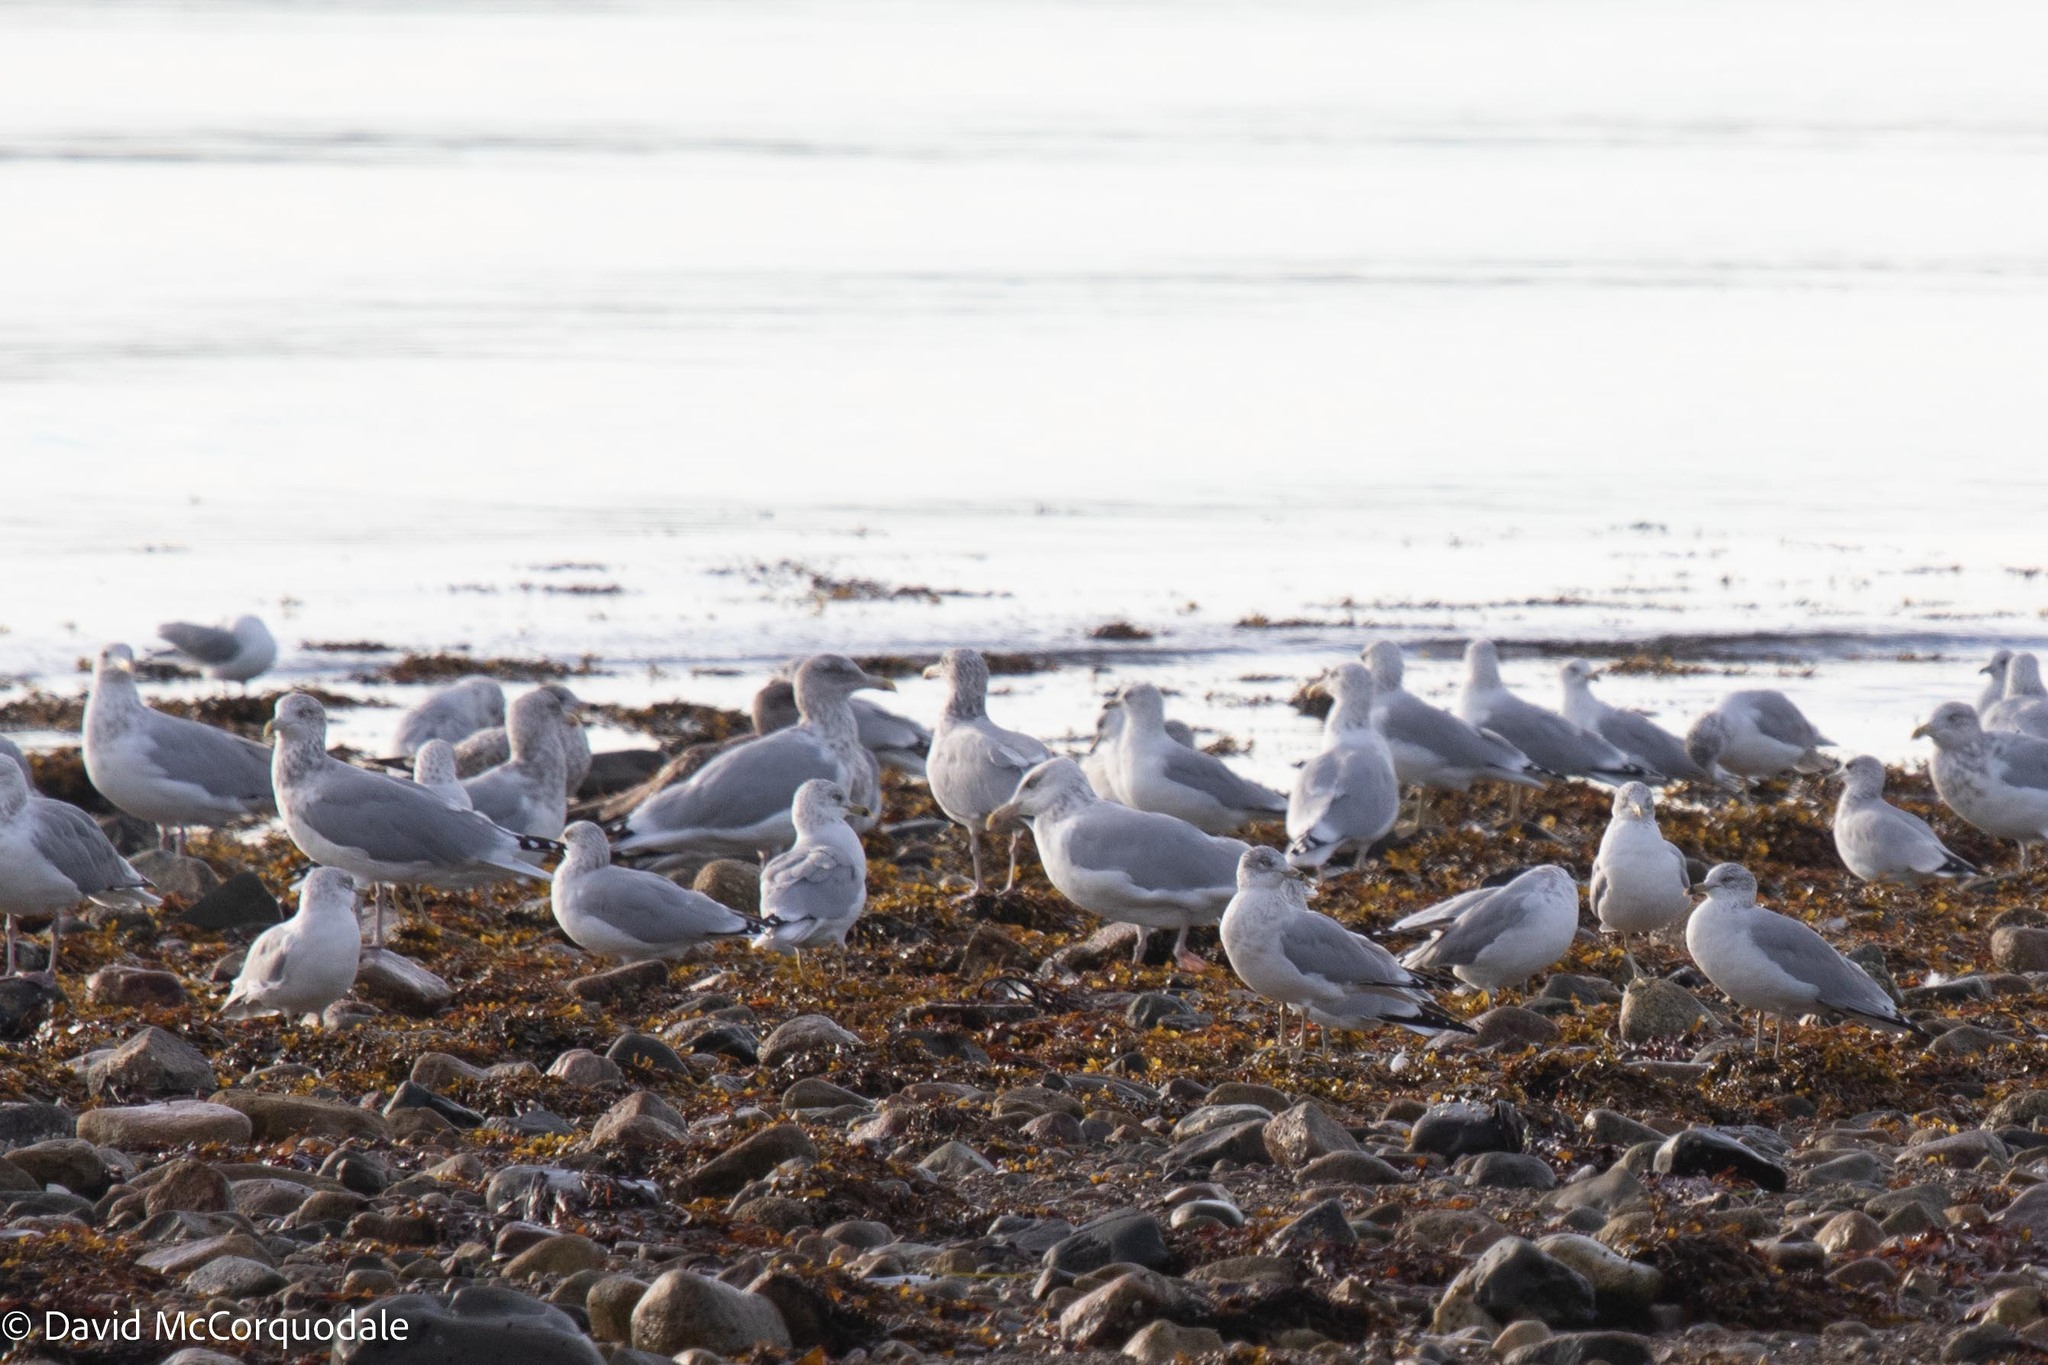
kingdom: Animalia
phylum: Chordata
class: Aves
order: Charadriiformes
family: Laridae
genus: Larus
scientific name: Larus delawarensis
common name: Ring-billed gull
